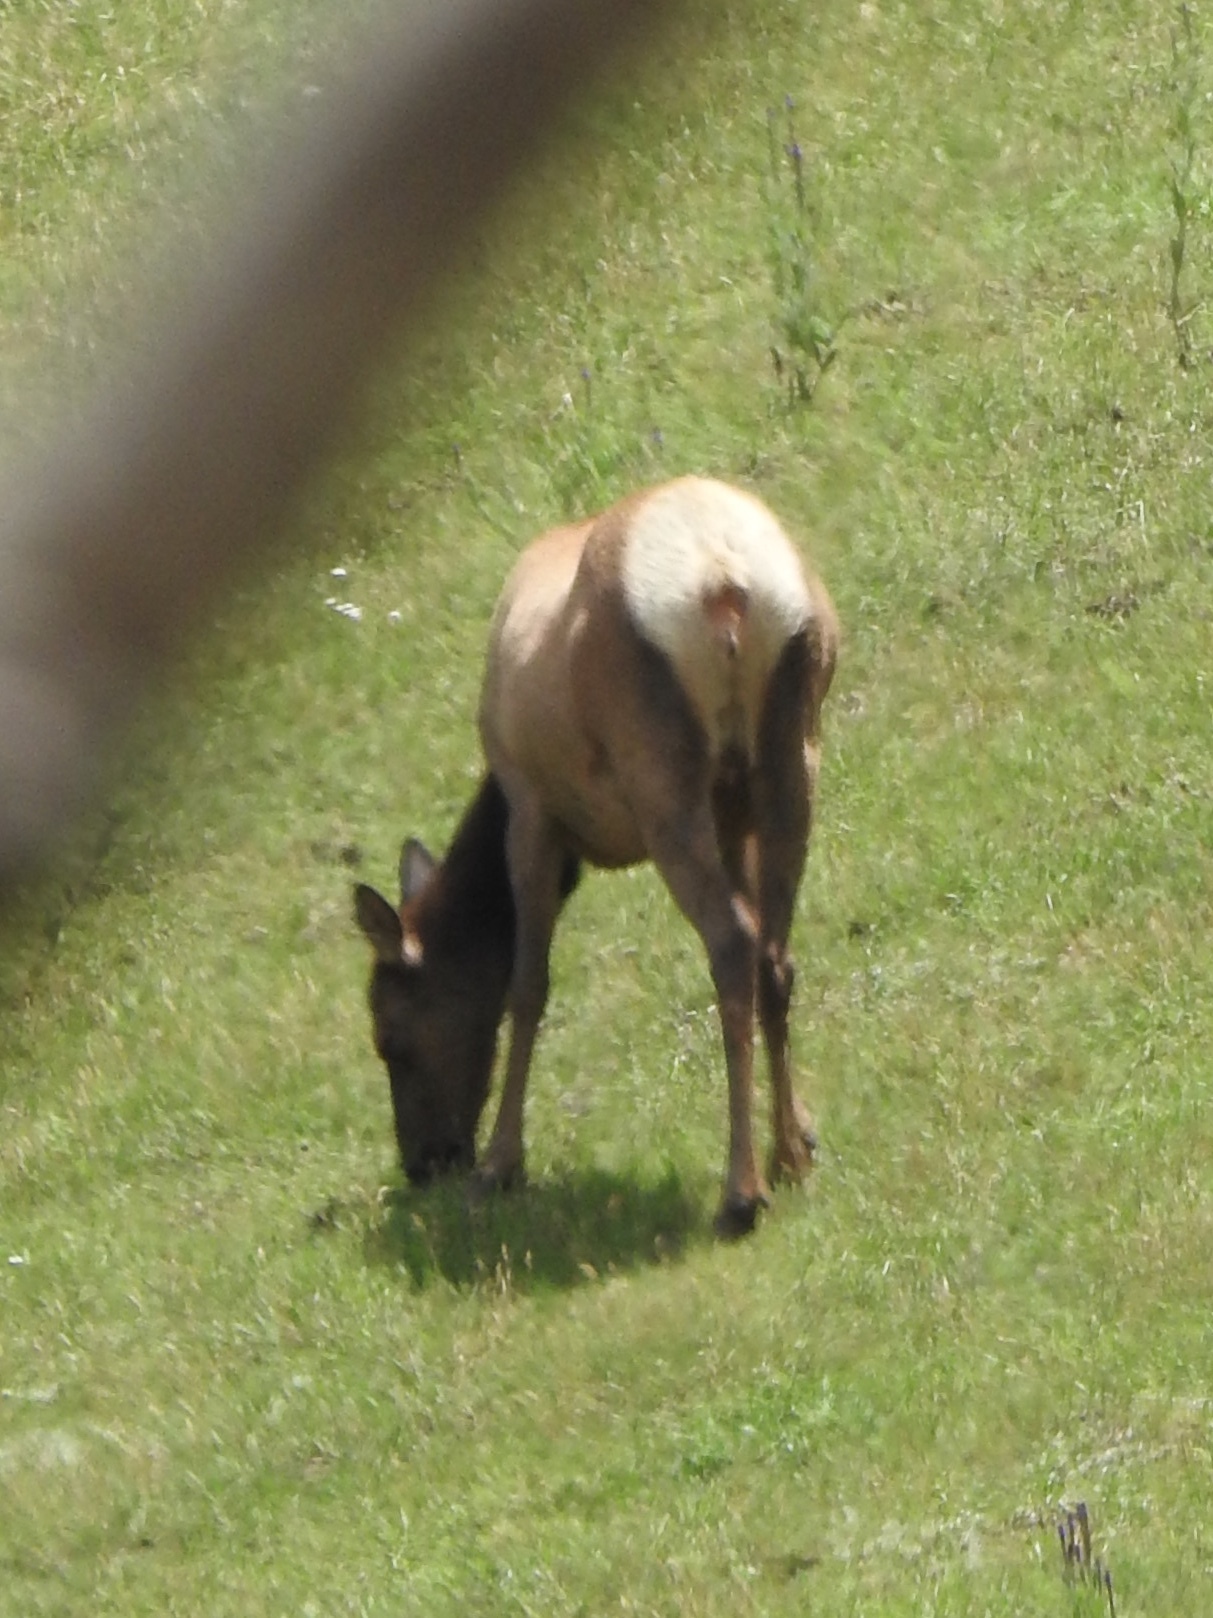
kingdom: Animalia
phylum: Chordata
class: Mammalia
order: Artiodactyla
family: Cervidae
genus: Cervus
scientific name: Cervus elaphus
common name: Red deer
